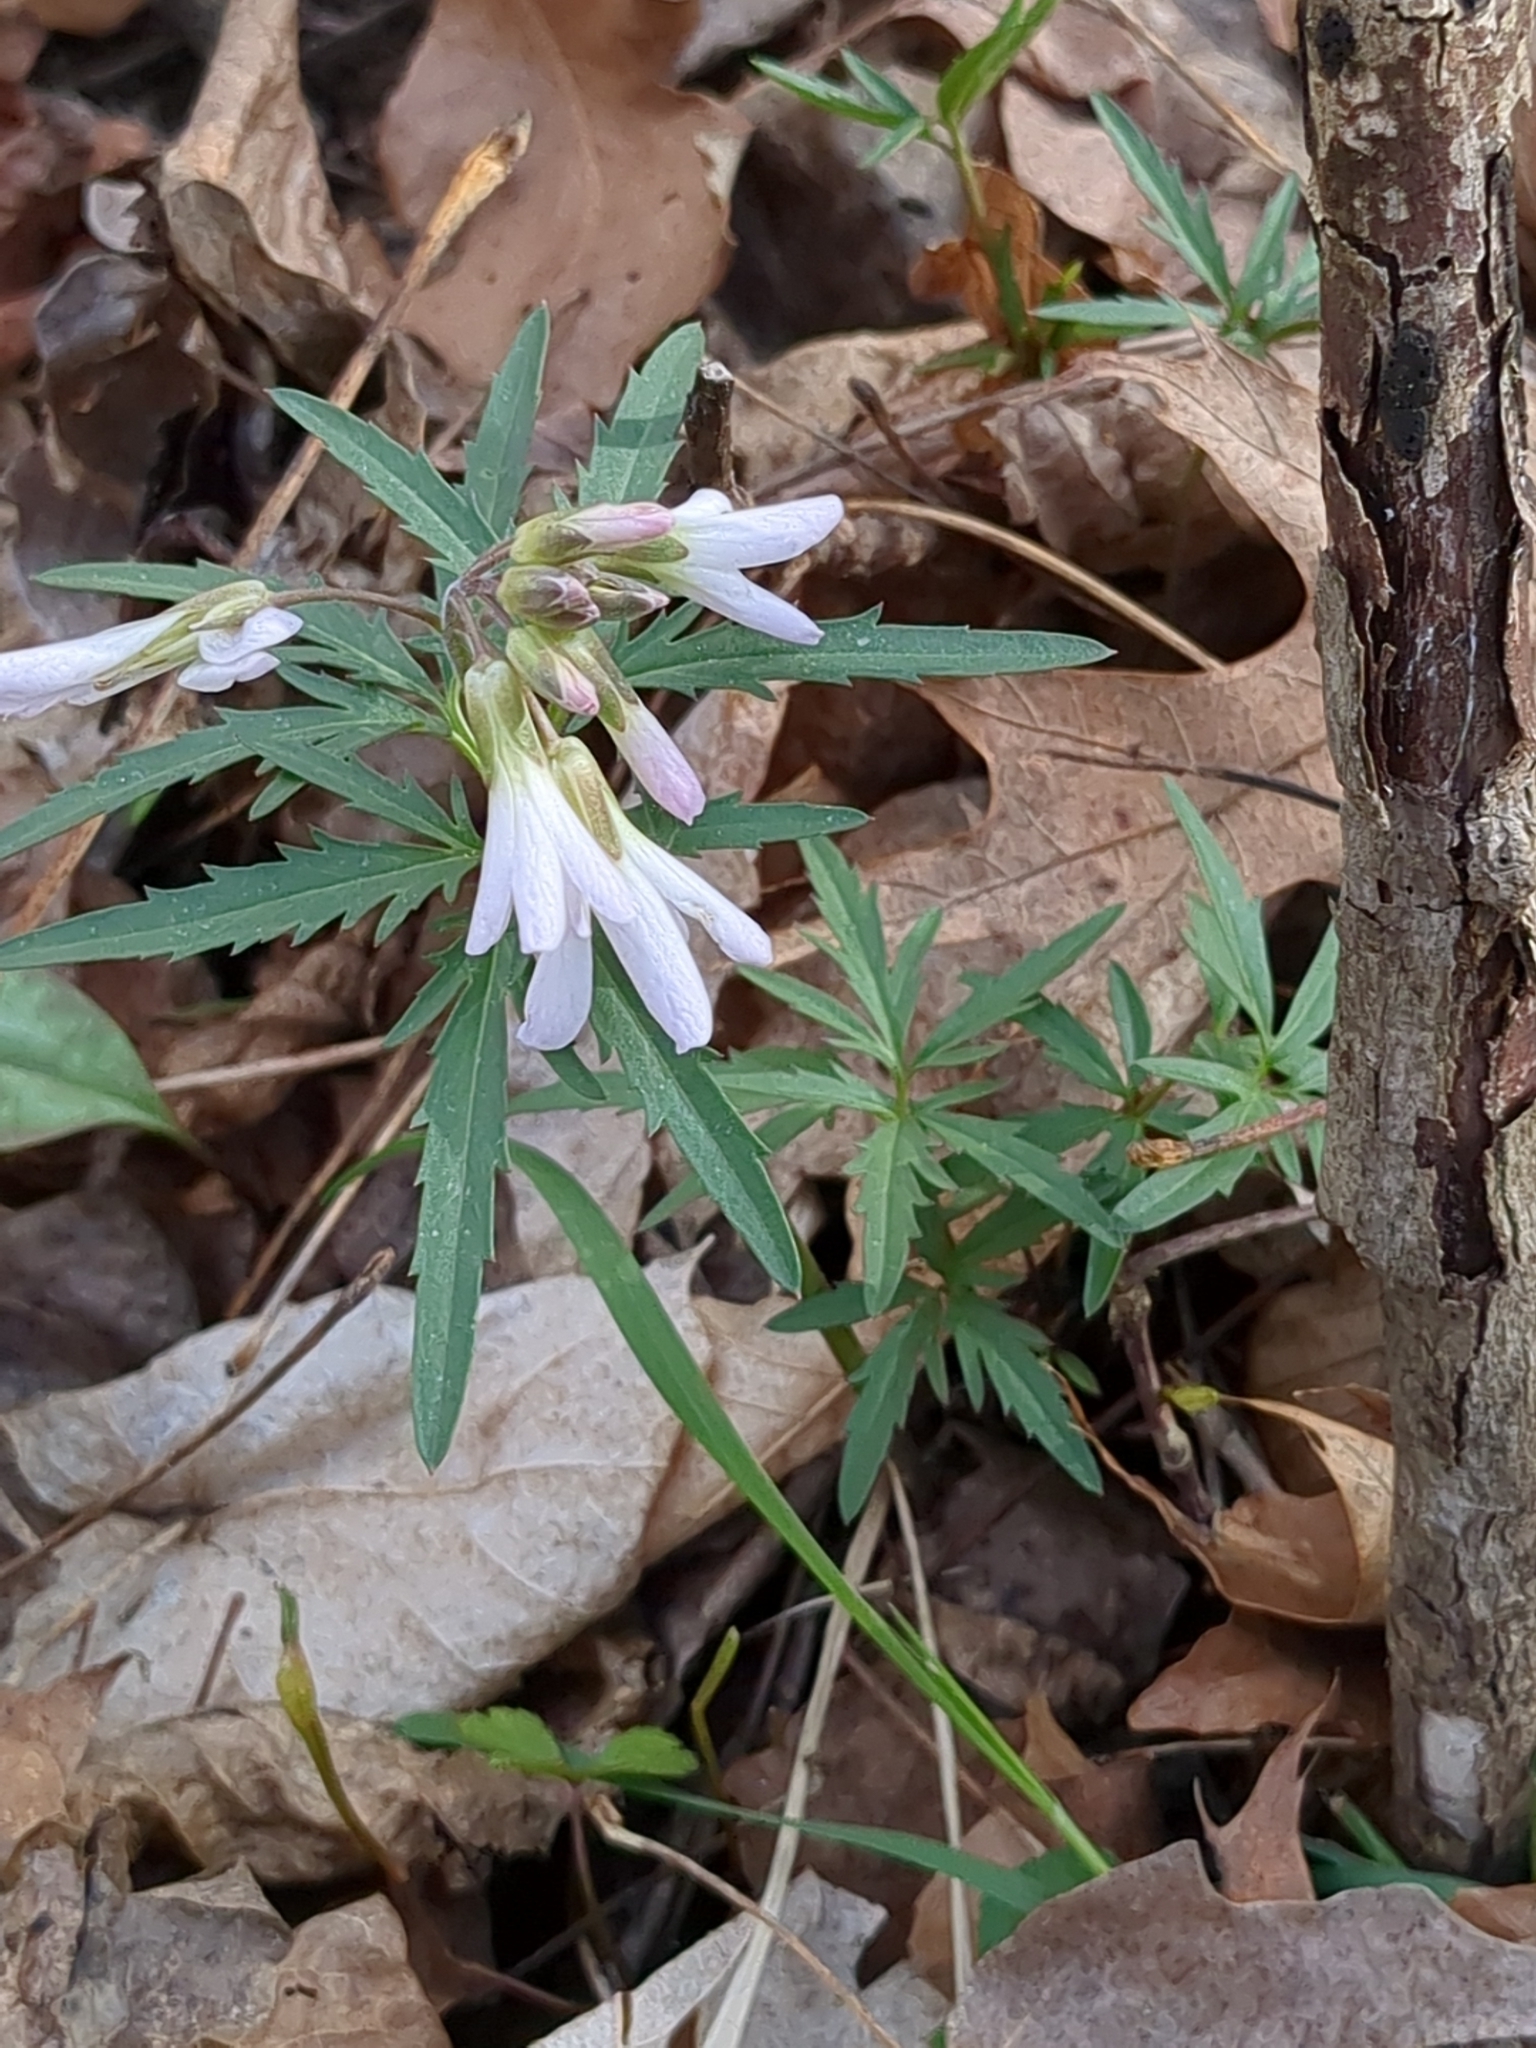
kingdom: Plantae
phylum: Tracheophyta
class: Magnoliopsida
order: Brassicales
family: Brassicaceae
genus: Cardamine
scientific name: Cardamine concatenata
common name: Cut-leaf toothcup
